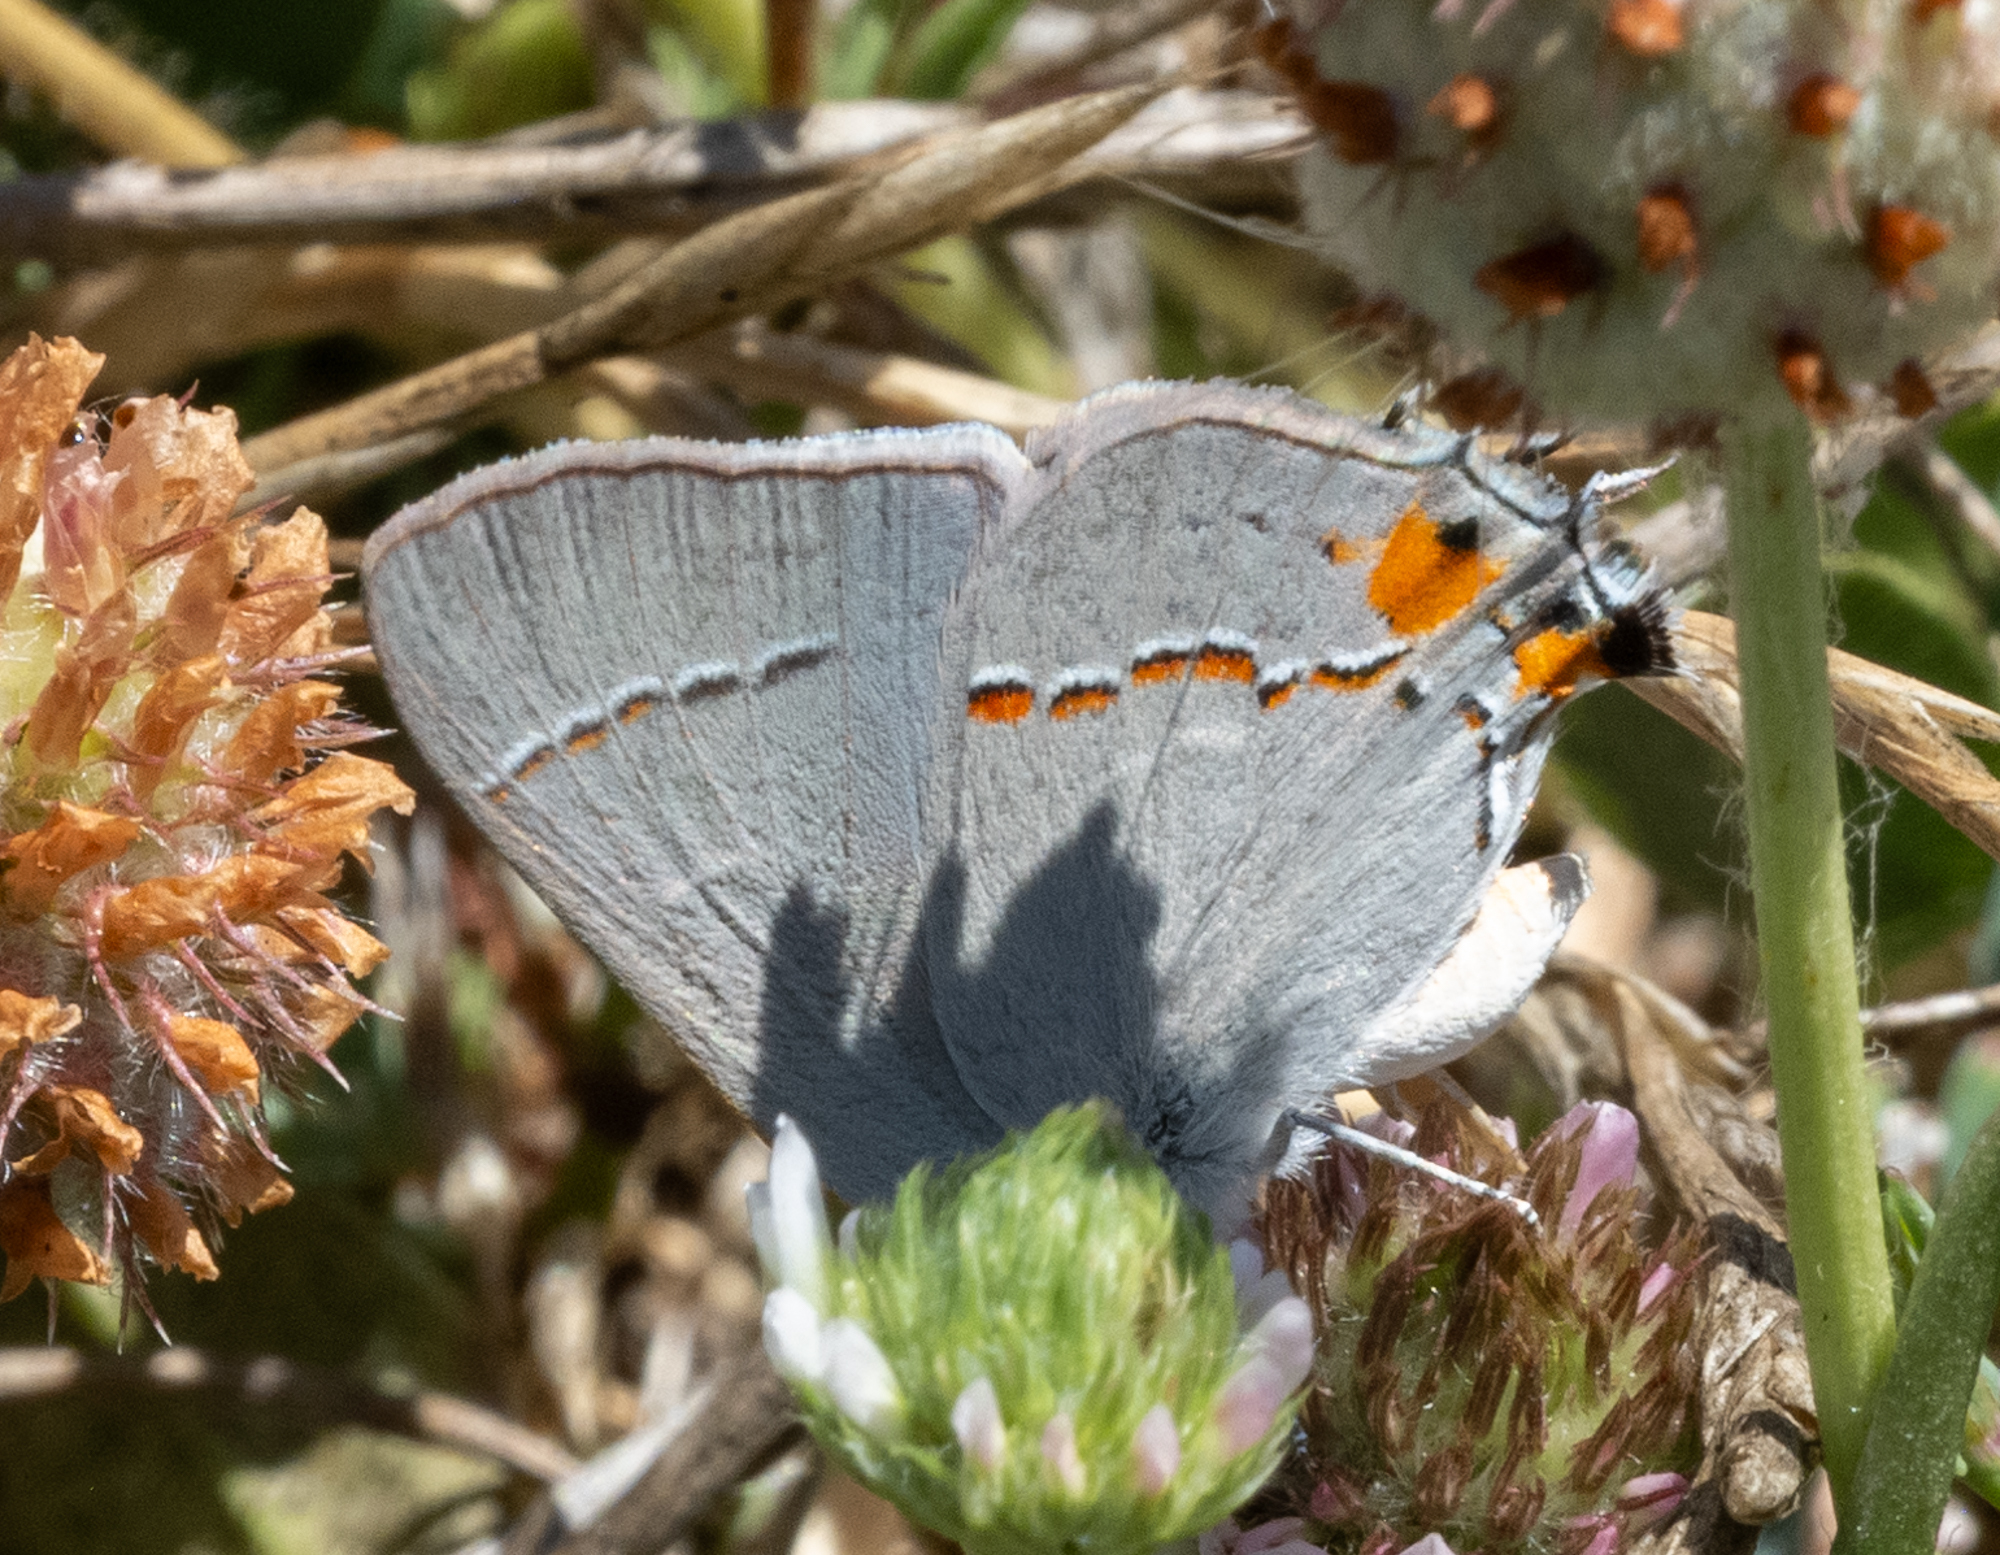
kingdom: Animalia
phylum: Arthropoda
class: Insecta
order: Lepidoptera
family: Lycaenidae
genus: Strymon
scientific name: Strymon melinus
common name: Gray hairstreak
